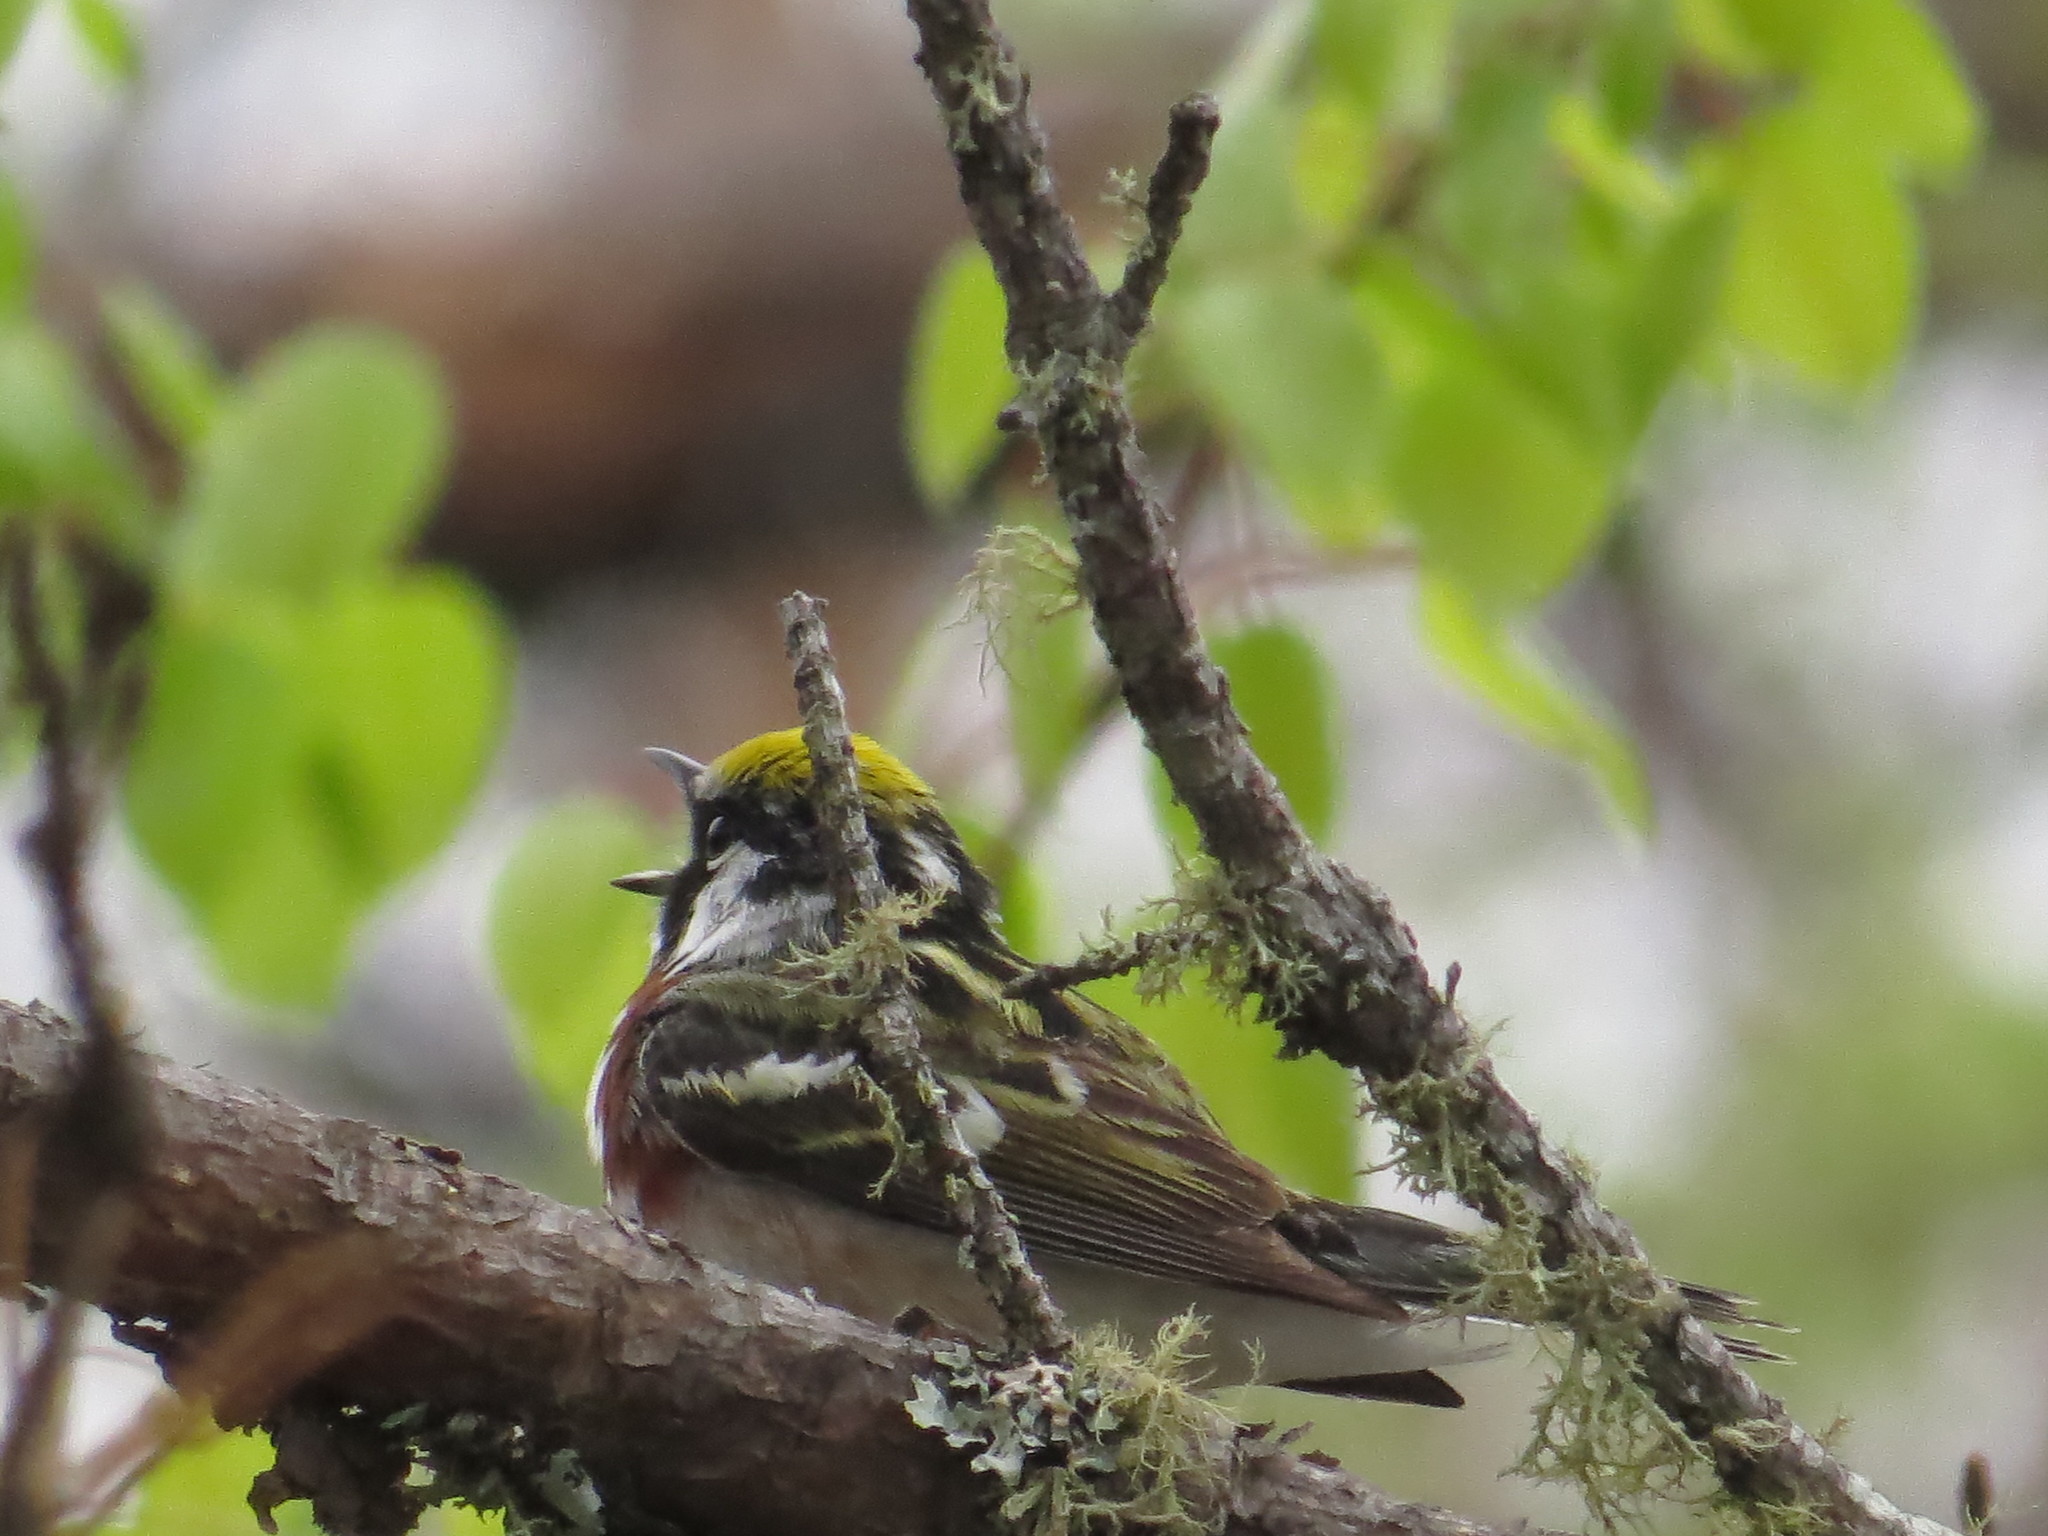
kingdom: Animalia
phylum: Chordata
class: Aves
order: Passeriformes
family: Parulidae
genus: Setophaga
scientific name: Setophaga pensylvanica
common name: Chestnut-sided warbler
